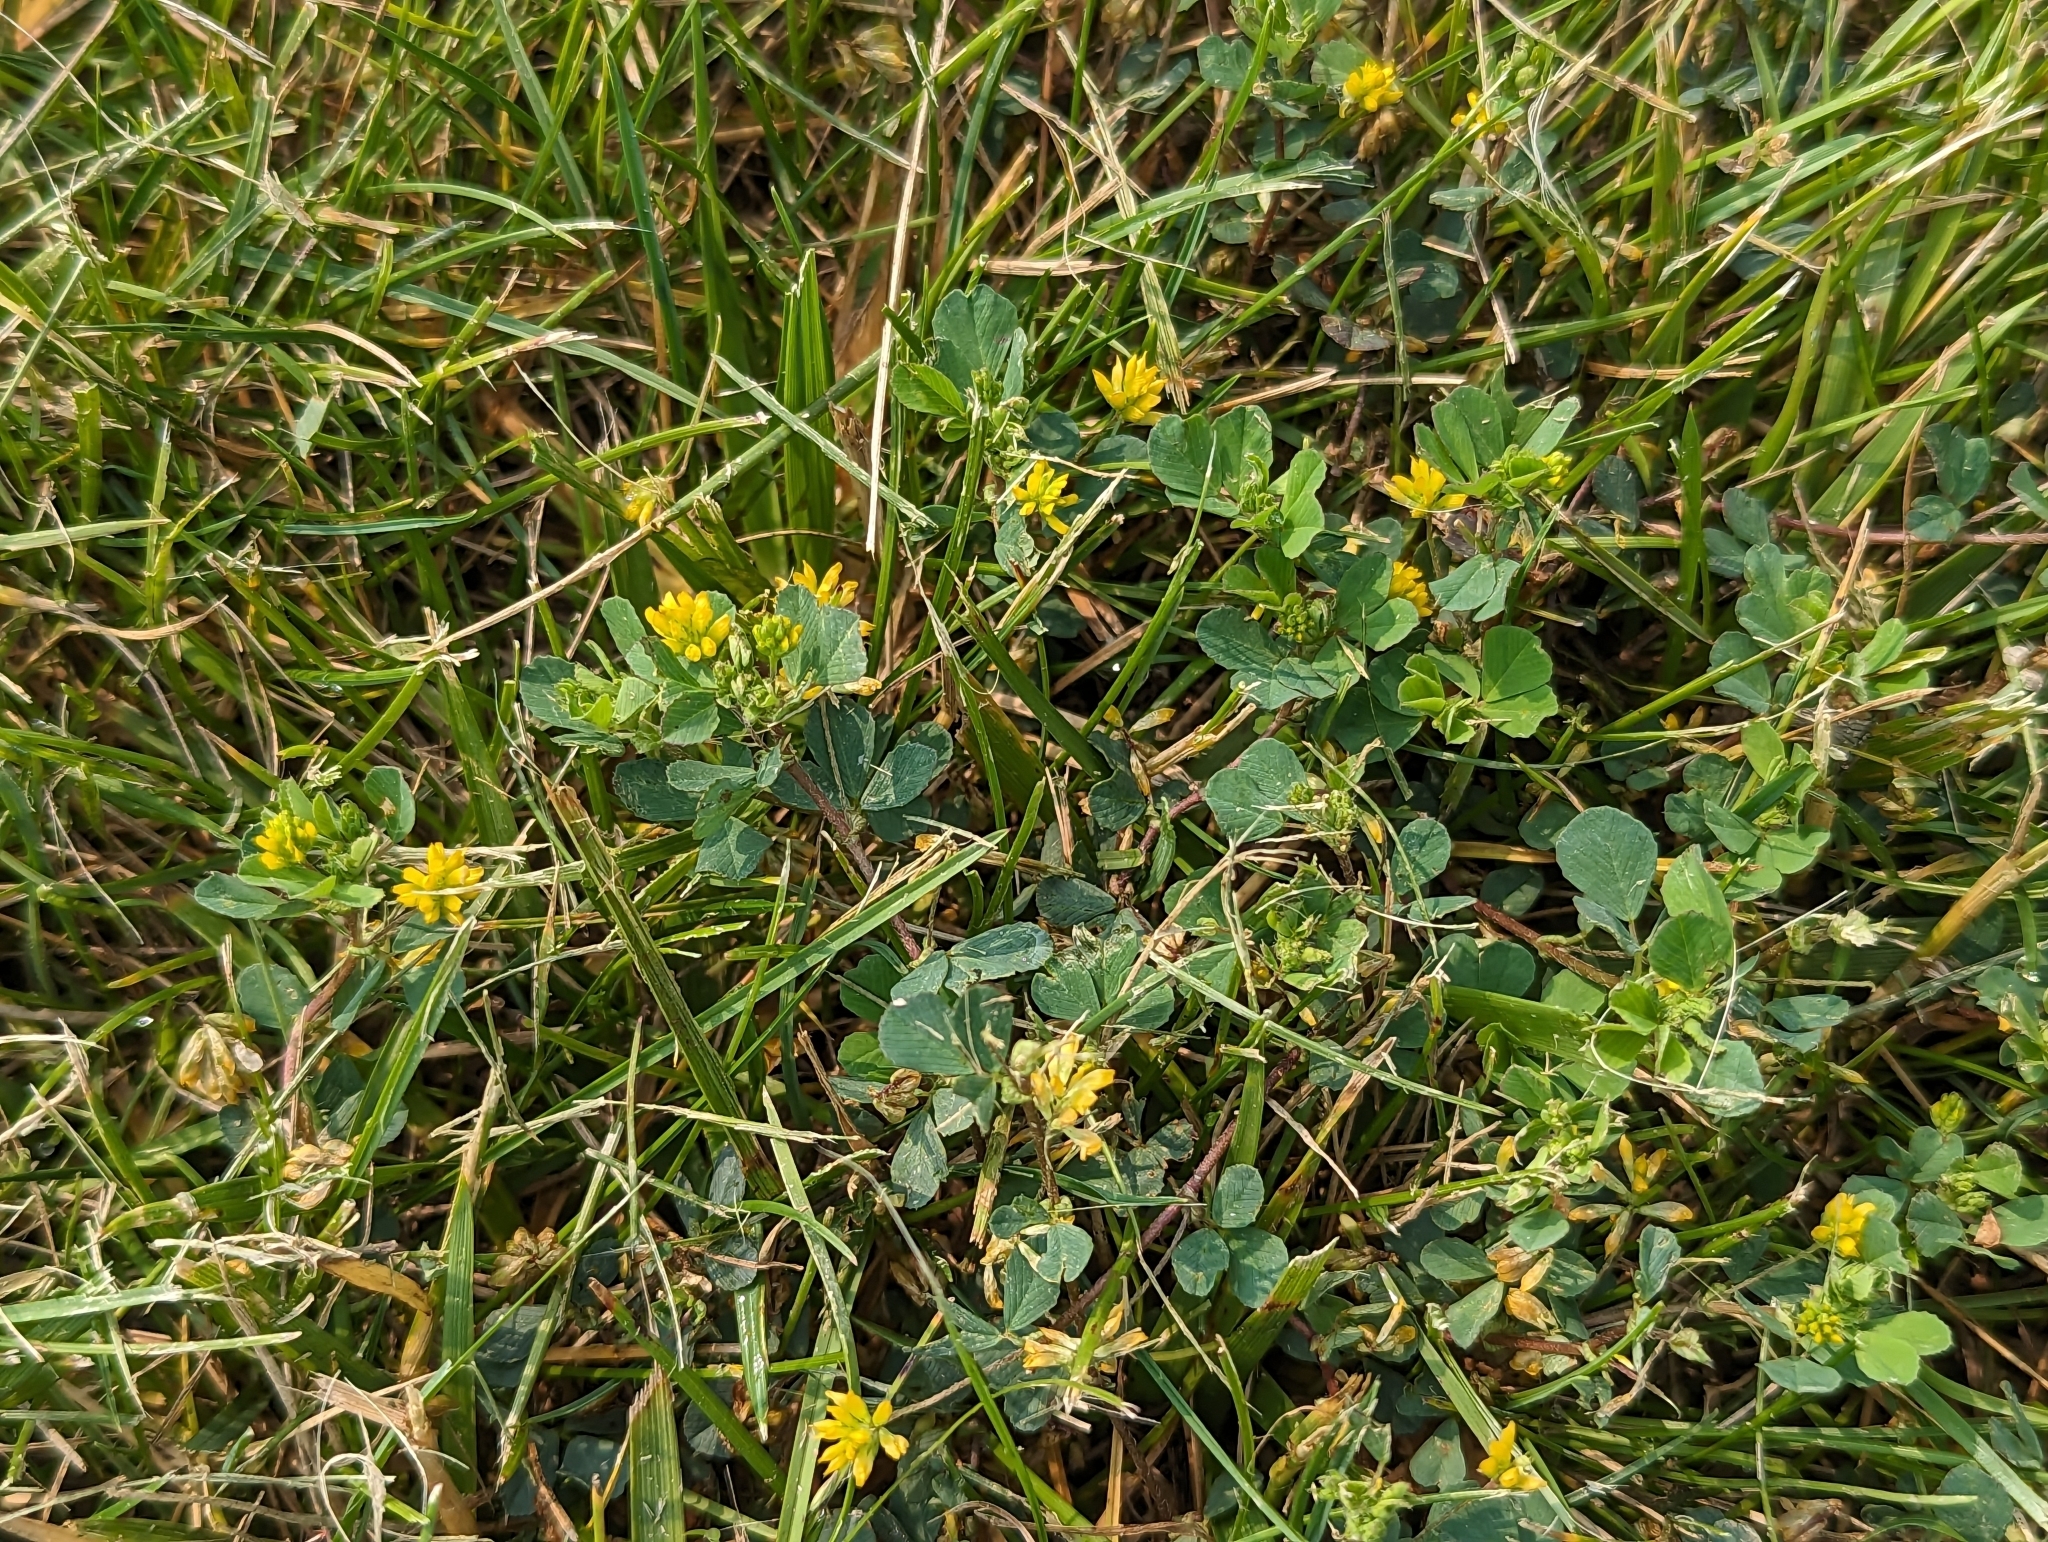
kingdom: Plantae
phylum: Tracheophyta
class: Magnoliopsida
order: Fabales
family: Fabaceae
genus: Trifolium
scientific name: Trifolium dubium
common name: Suckling clover
